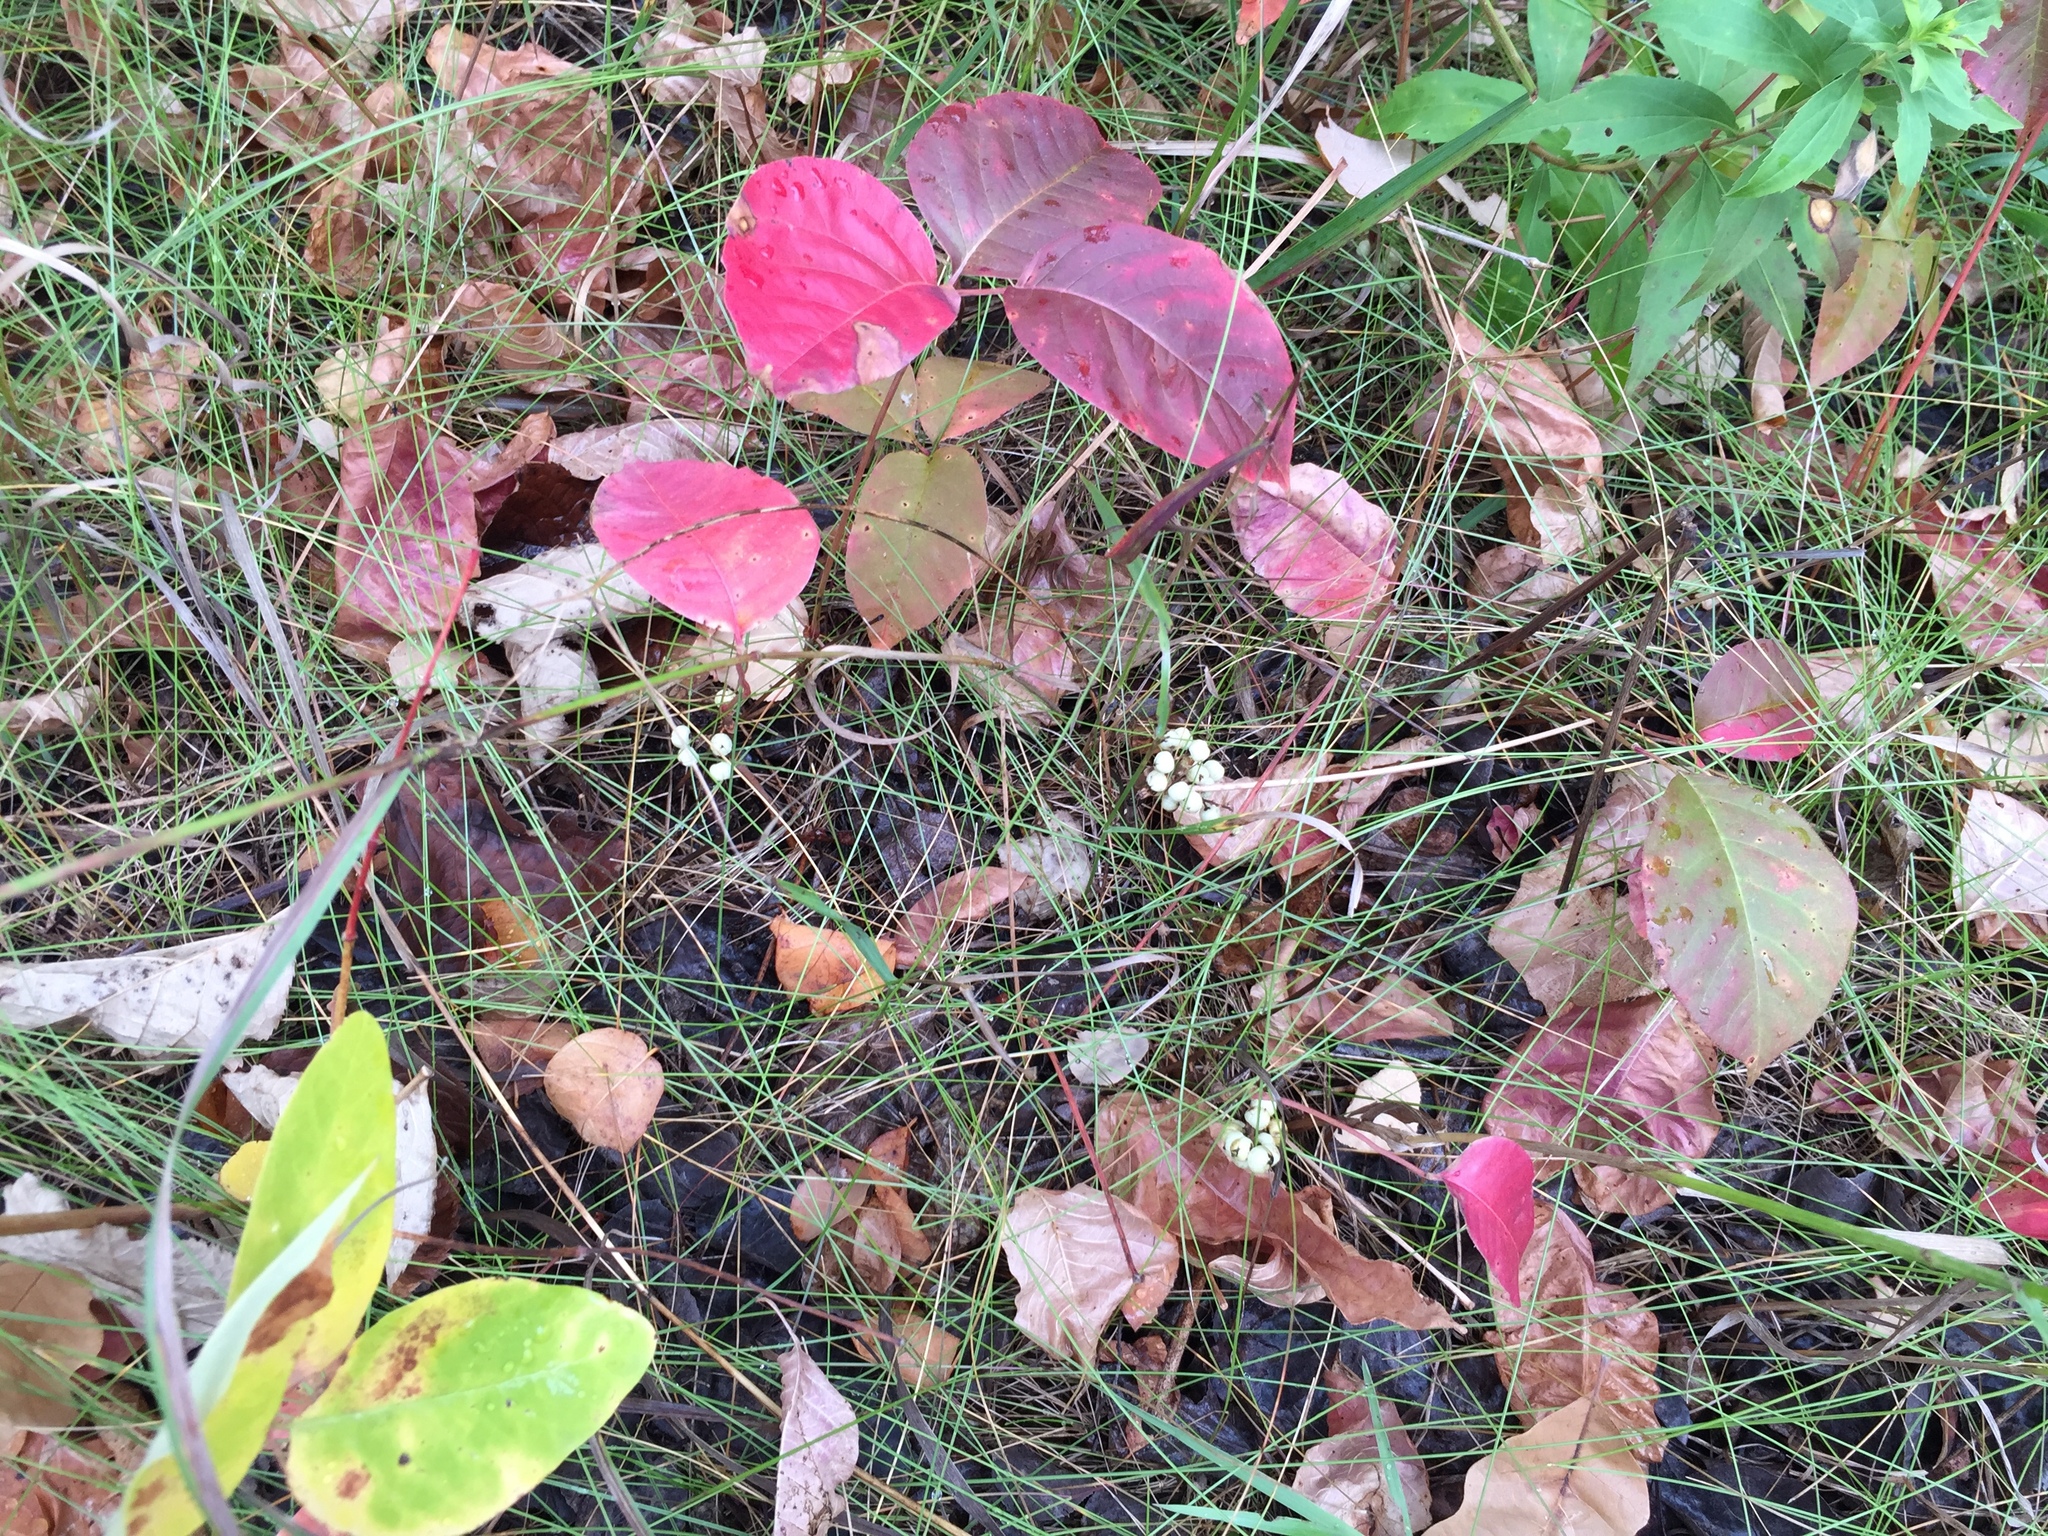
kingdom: Plantae
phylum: Tracheophyta
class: Magnoliopsida
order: Sapindales
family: Anacardiaceae
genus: Toxicodendron
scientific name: Toxicodendron rydbergii
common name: Rydberg's poison-ivy
